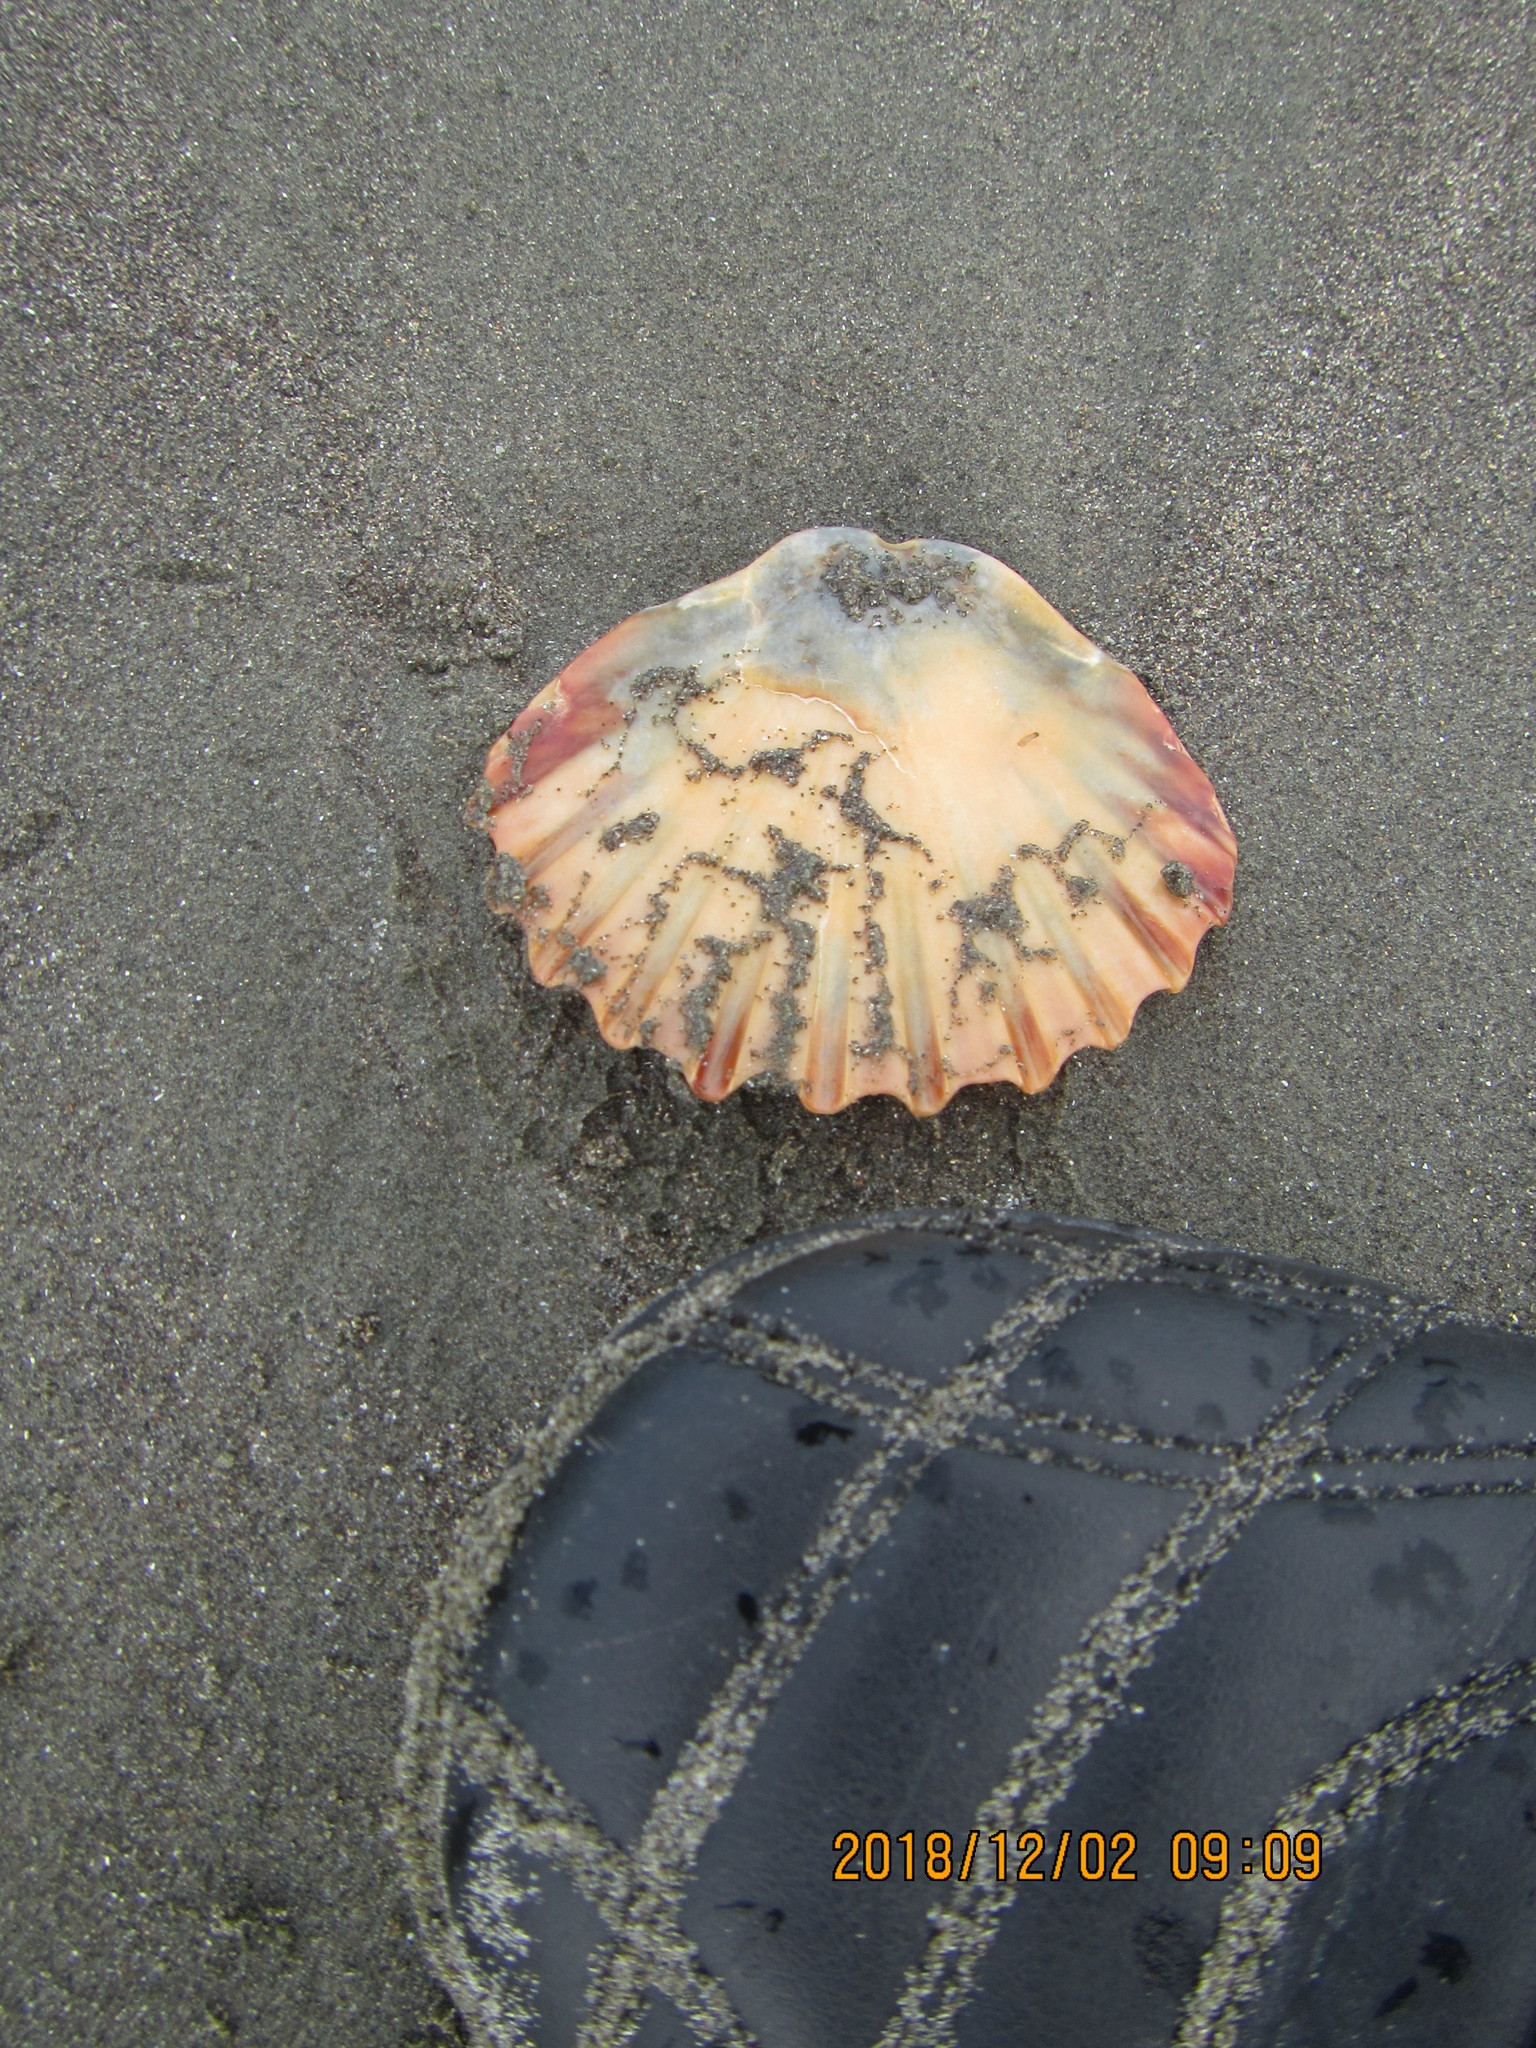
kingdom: Animalia
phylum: Mollusca
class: Bivalvia
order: Pectinida
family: Pectinidae
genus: Pecten
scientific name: Pecten novaezelandiae
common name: New zealand scallop
